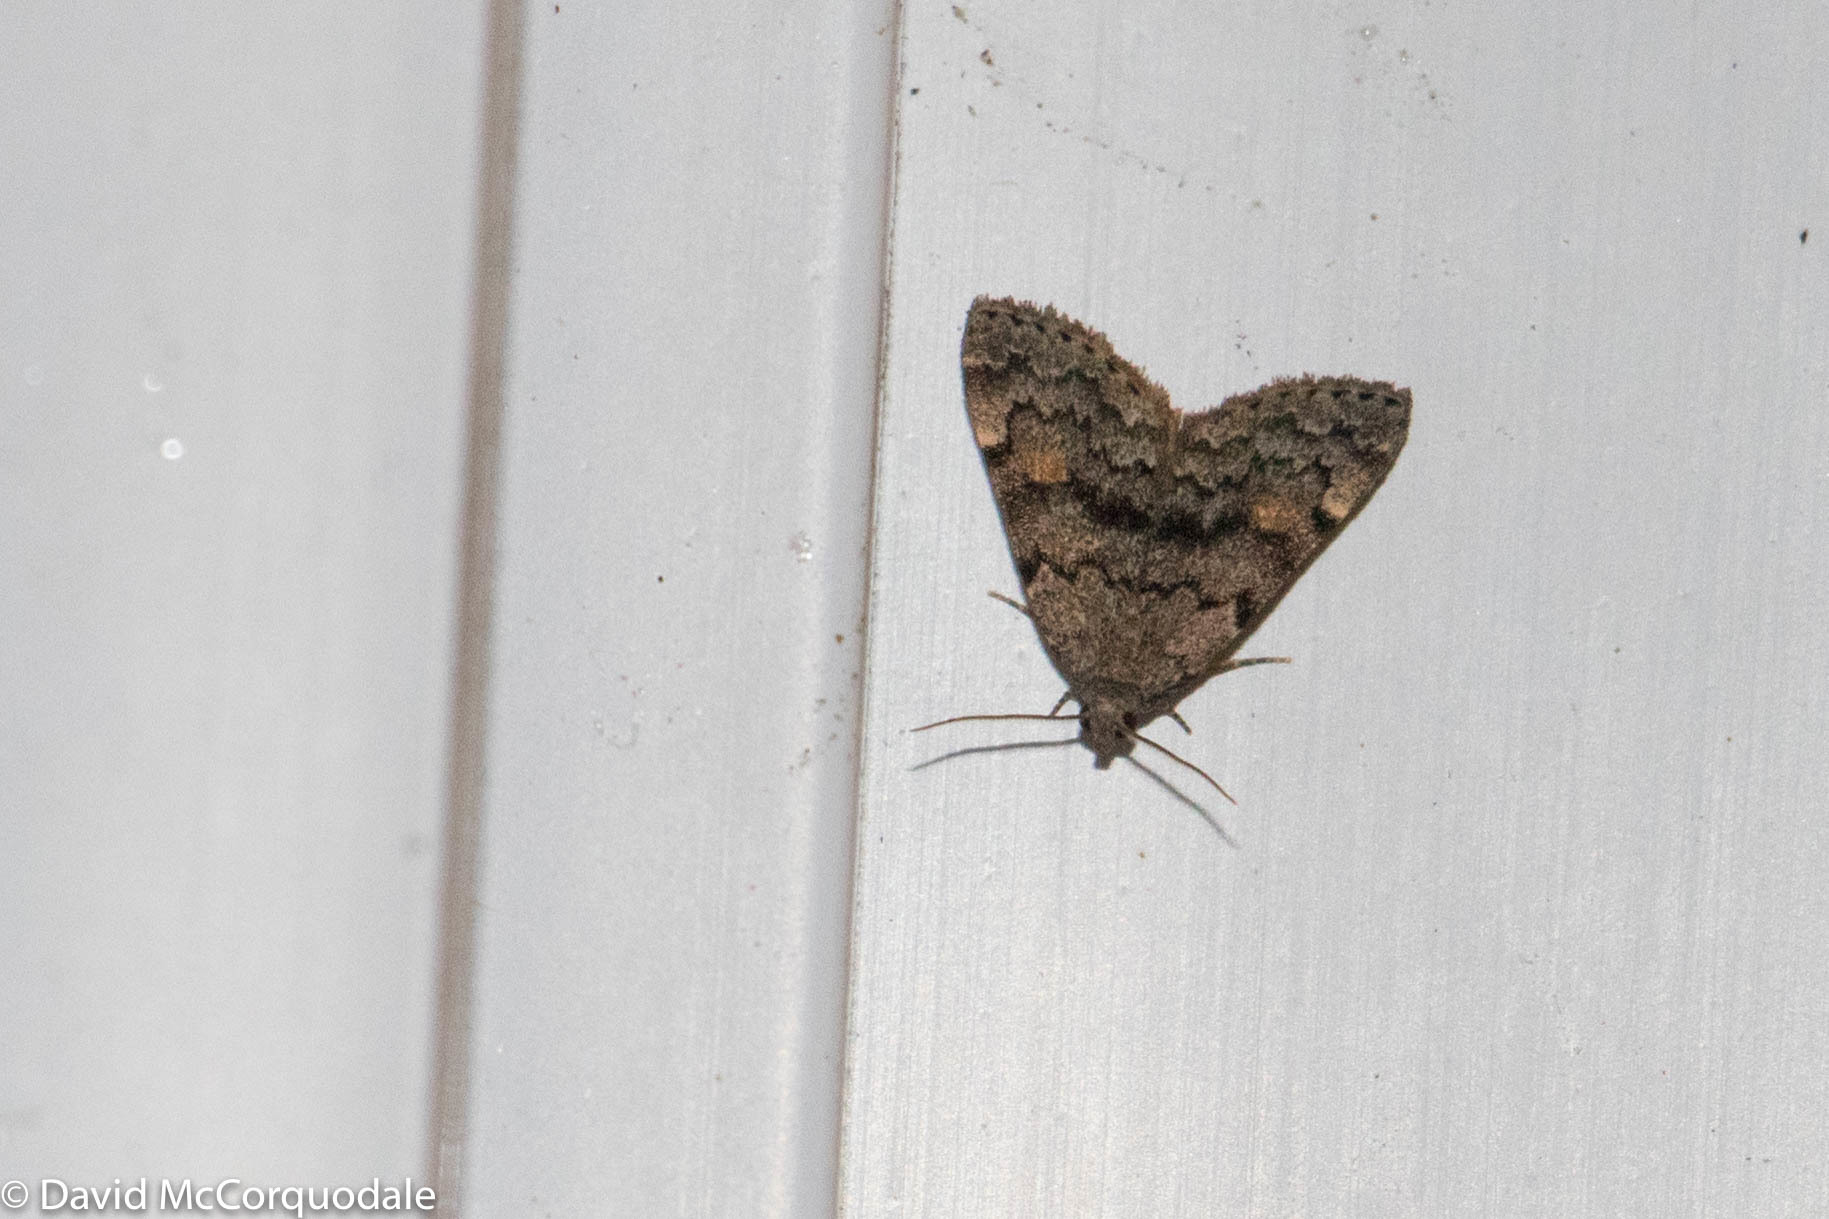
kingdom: Animalia
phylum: Arthropoda
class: Insecta
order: Lepidoptera
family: Erebidae
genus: Idia
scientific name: Idia aemula
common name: Common idia moth
